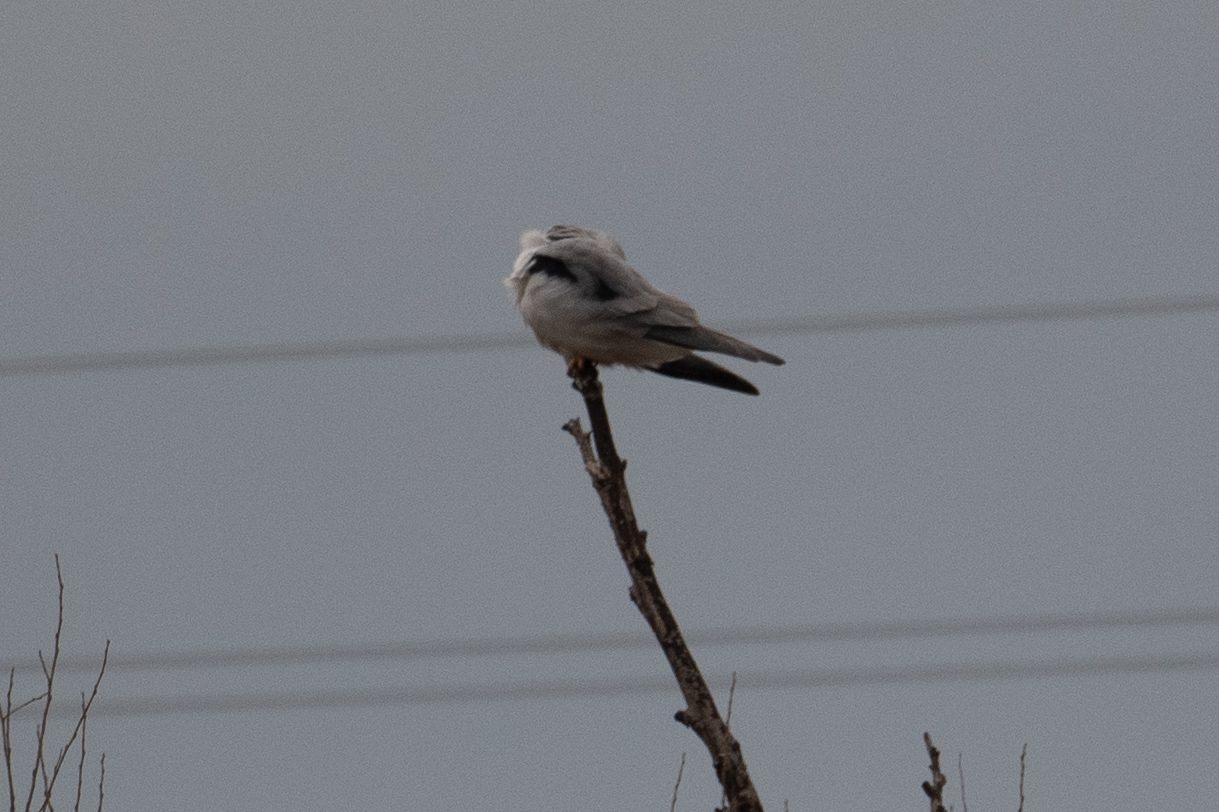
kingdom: Animalia
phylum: Chordata
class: Aves
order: Accipitriformes
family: Accipitridae
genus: Elanus
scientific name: Elanus leucurus
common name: White-tailed kite
